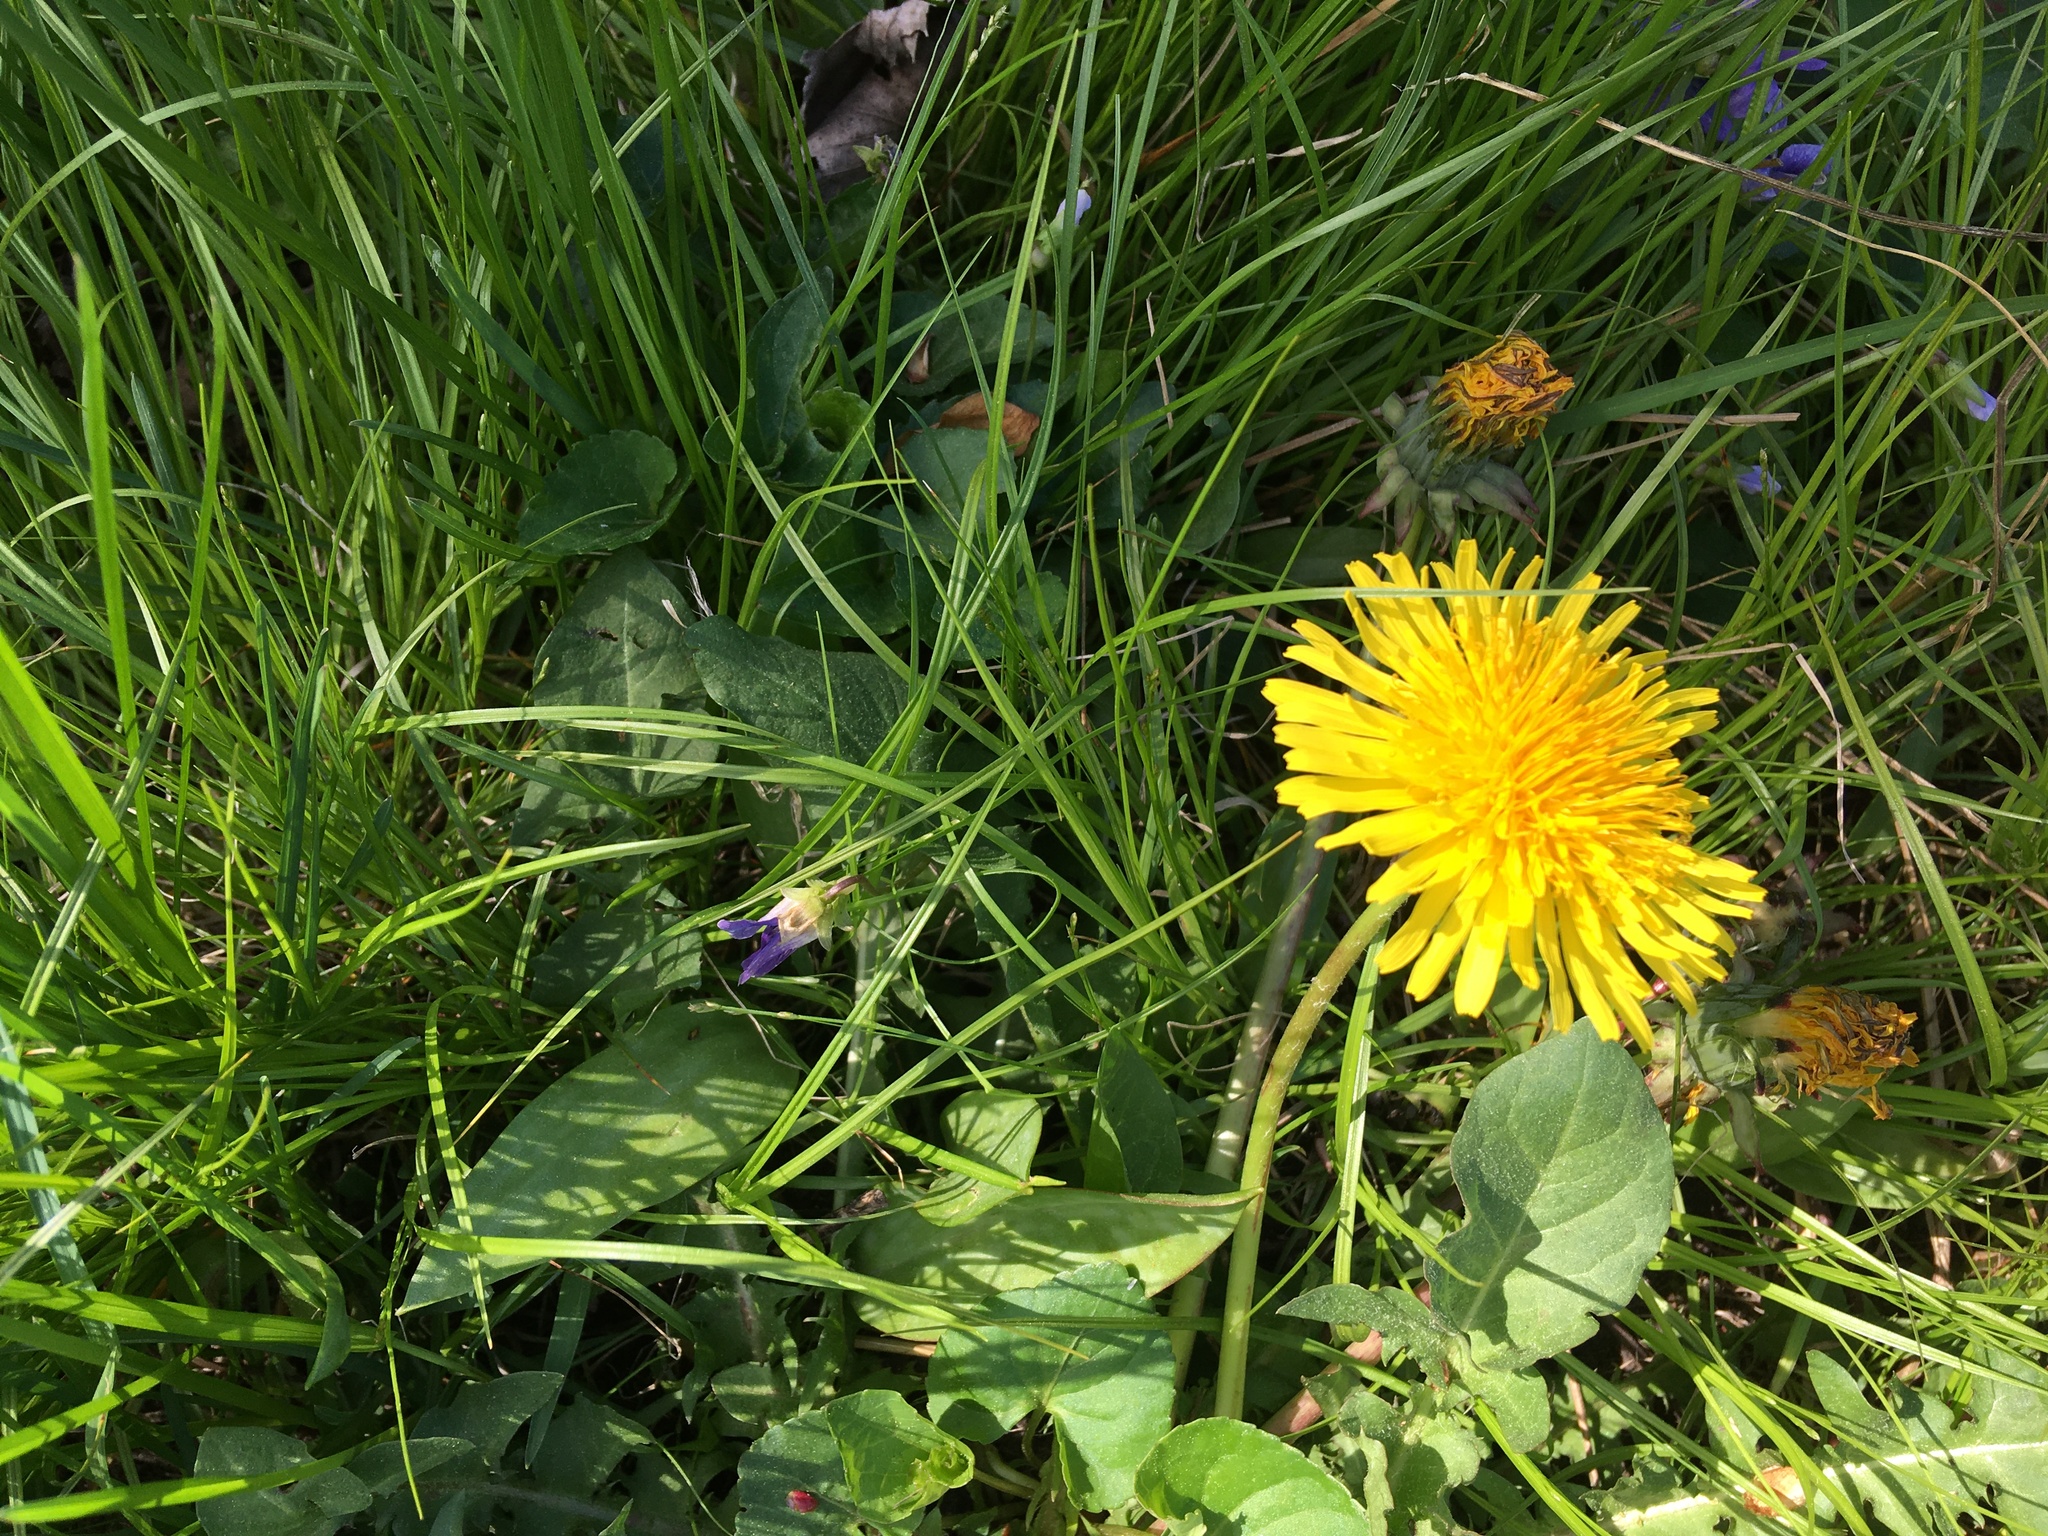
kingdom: Plantae
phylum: Tracheophyta
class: Magnoliopsida
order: Asterales
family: Asteraceae
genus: Taraxacum
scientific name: Taraxacum officinale
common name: Common dandelion
